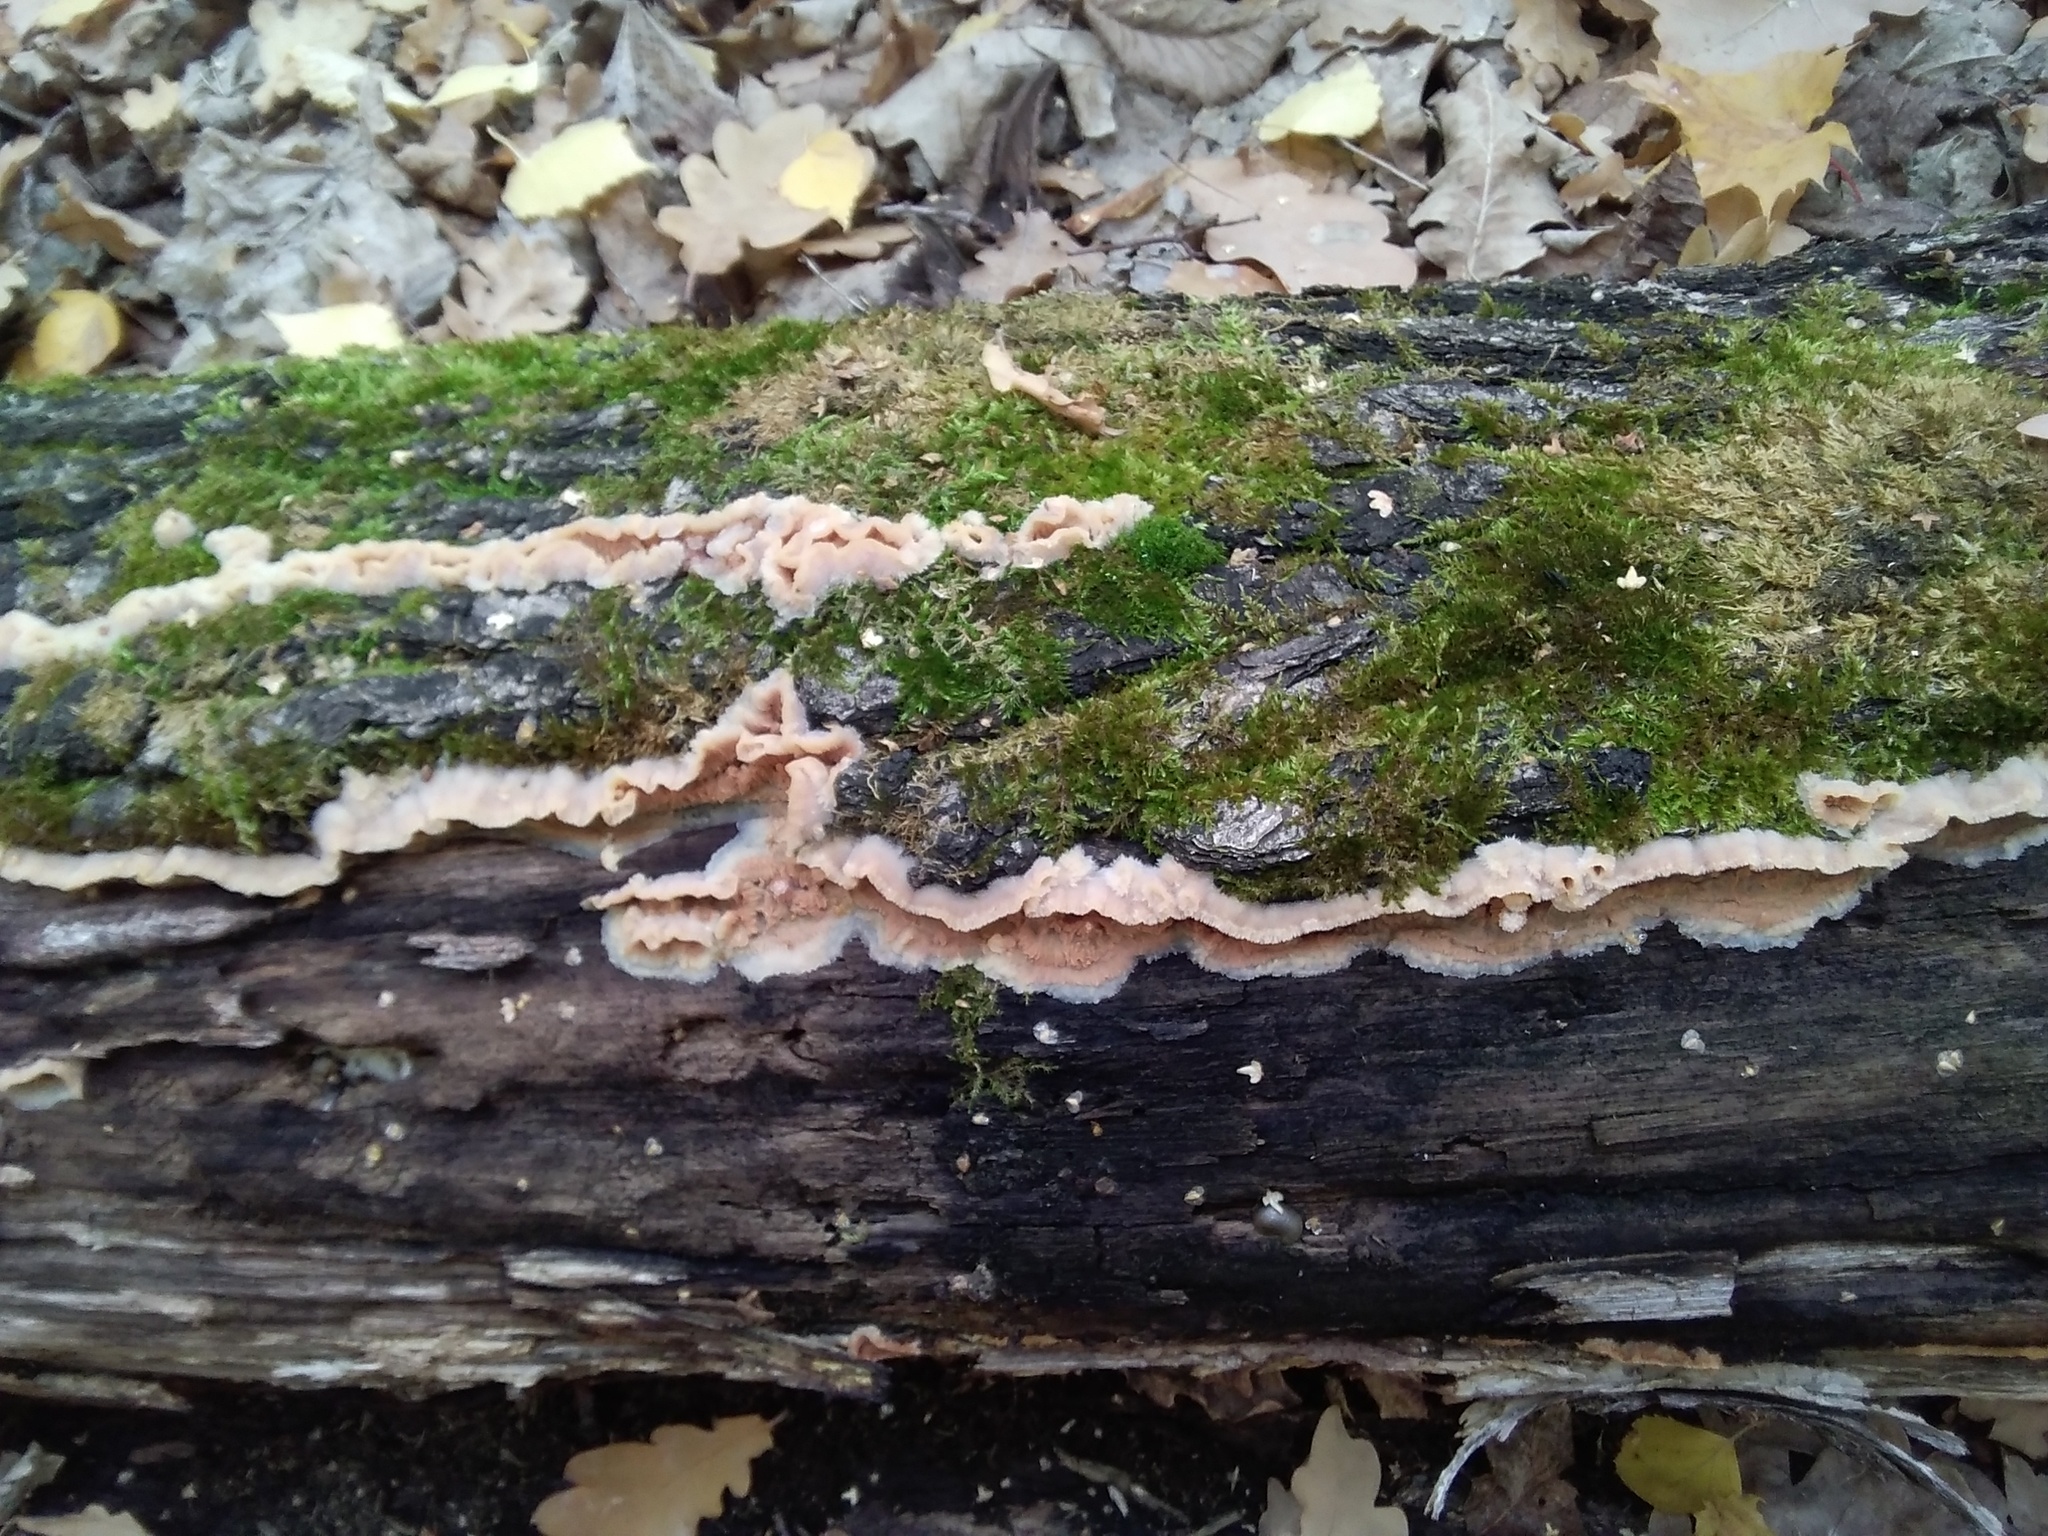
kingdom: Fungi
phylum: Basidiomycota
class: Agaricomycetes
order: Polyporales
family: Meruliaceae
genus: Phlebia
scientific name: Phlebia tremellosa
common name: Jelly rot
